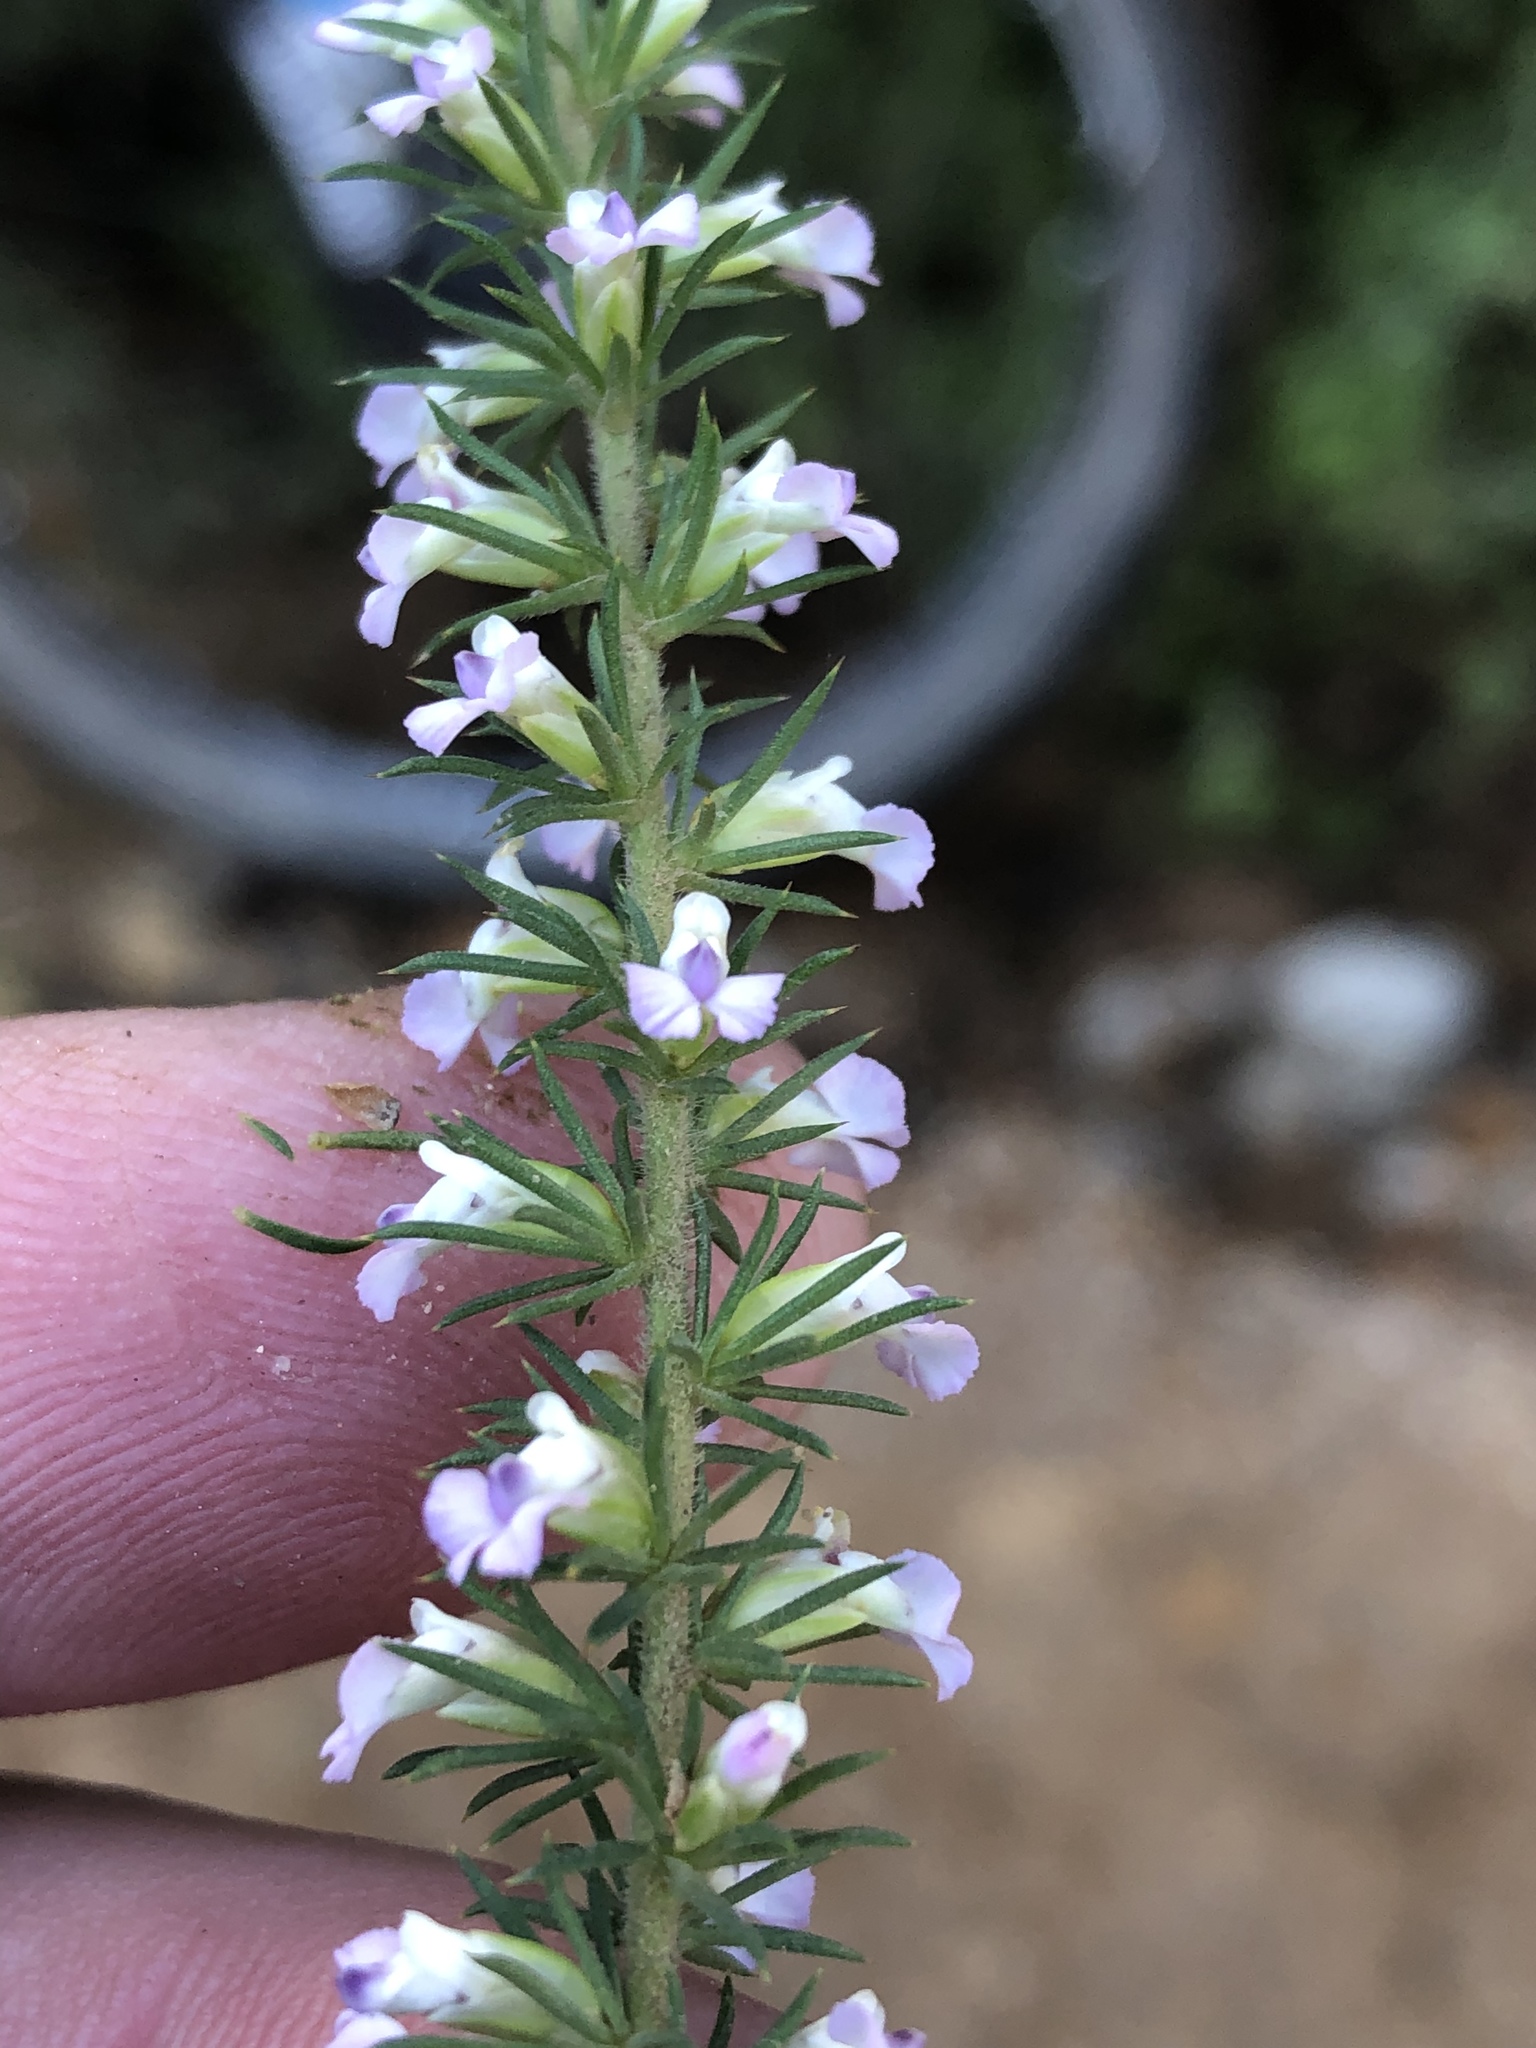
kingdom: Plantae
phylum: Tracheophyta
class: Magnoliopsida
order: Fabales
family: Polygalaceae
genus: Muraltia
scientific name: Muraltia ericifolia
